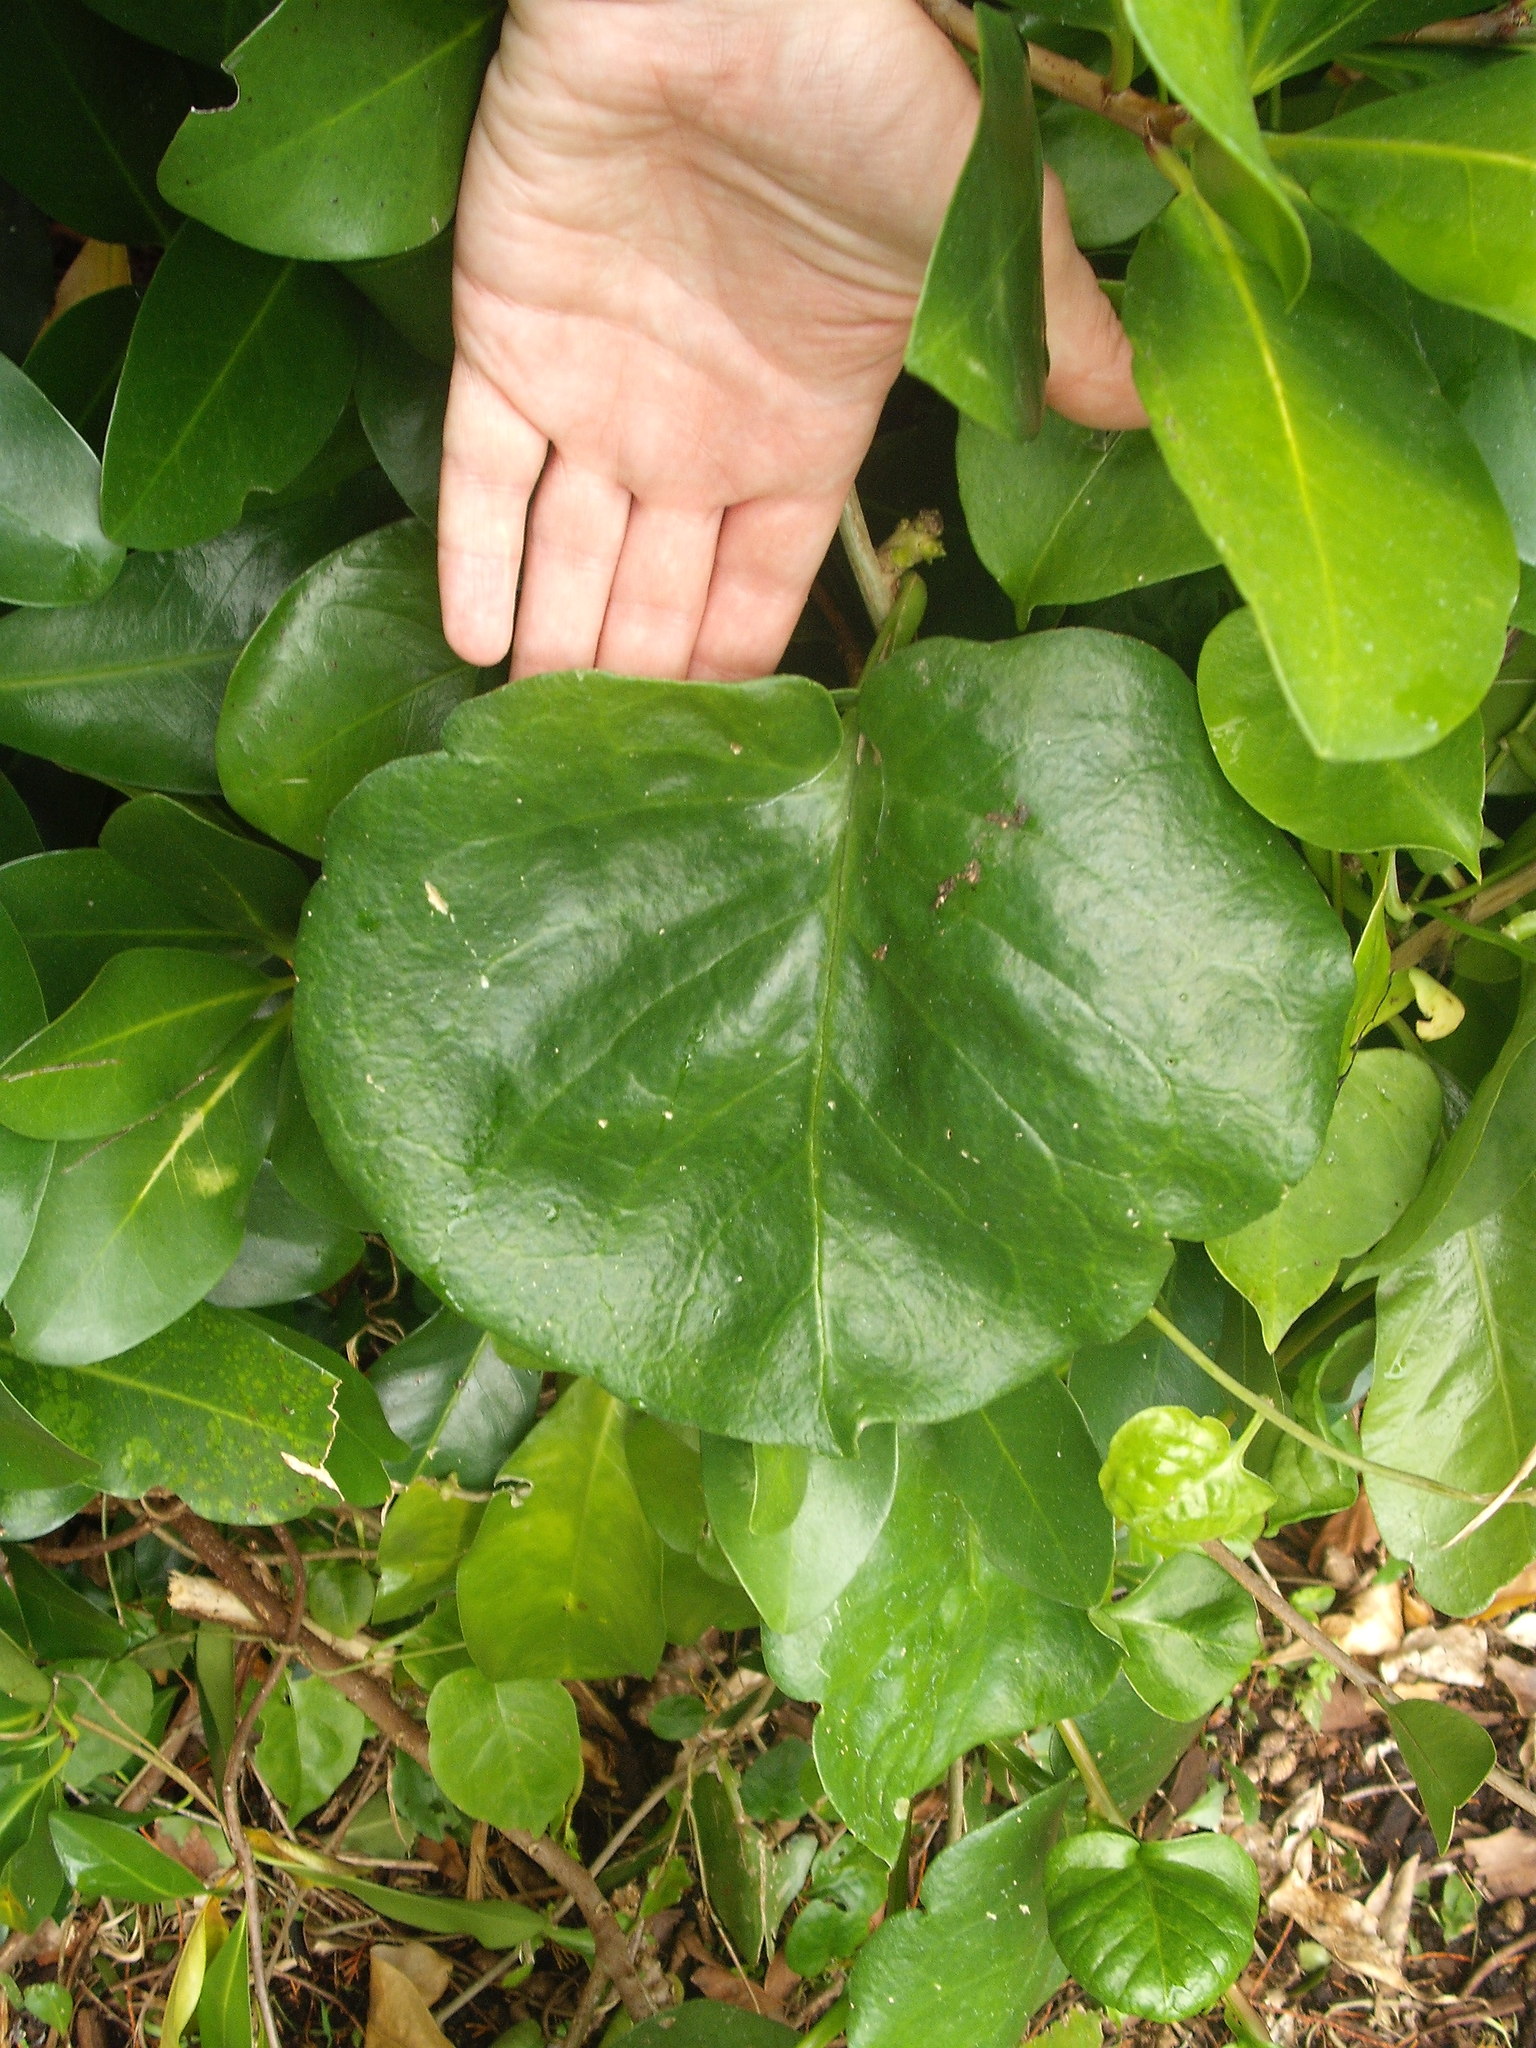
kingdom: Plantae
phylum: Tracheophyta
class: Magnoliopsida
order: Caryophyllales
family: Basellaceae
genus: Anredera
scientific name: Anredera cordifolia
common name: Heartleaf madeiravine
